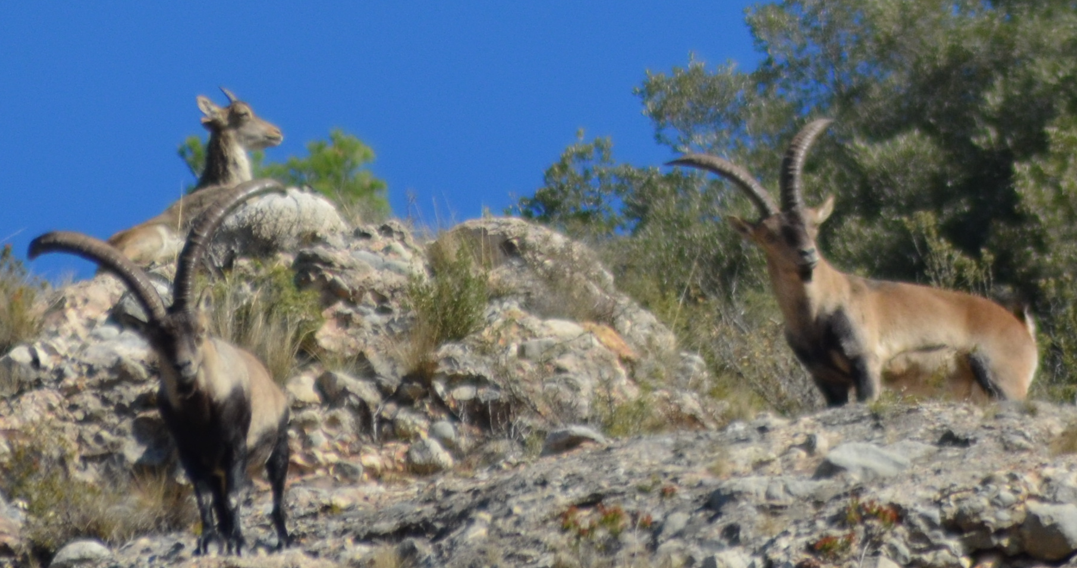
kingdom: Animalia
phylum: Chordata
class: Mammalia
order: Artiodactyla
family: Bovidae
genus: Capra
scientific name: Capra pyrenaica
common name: Spanish ibex
